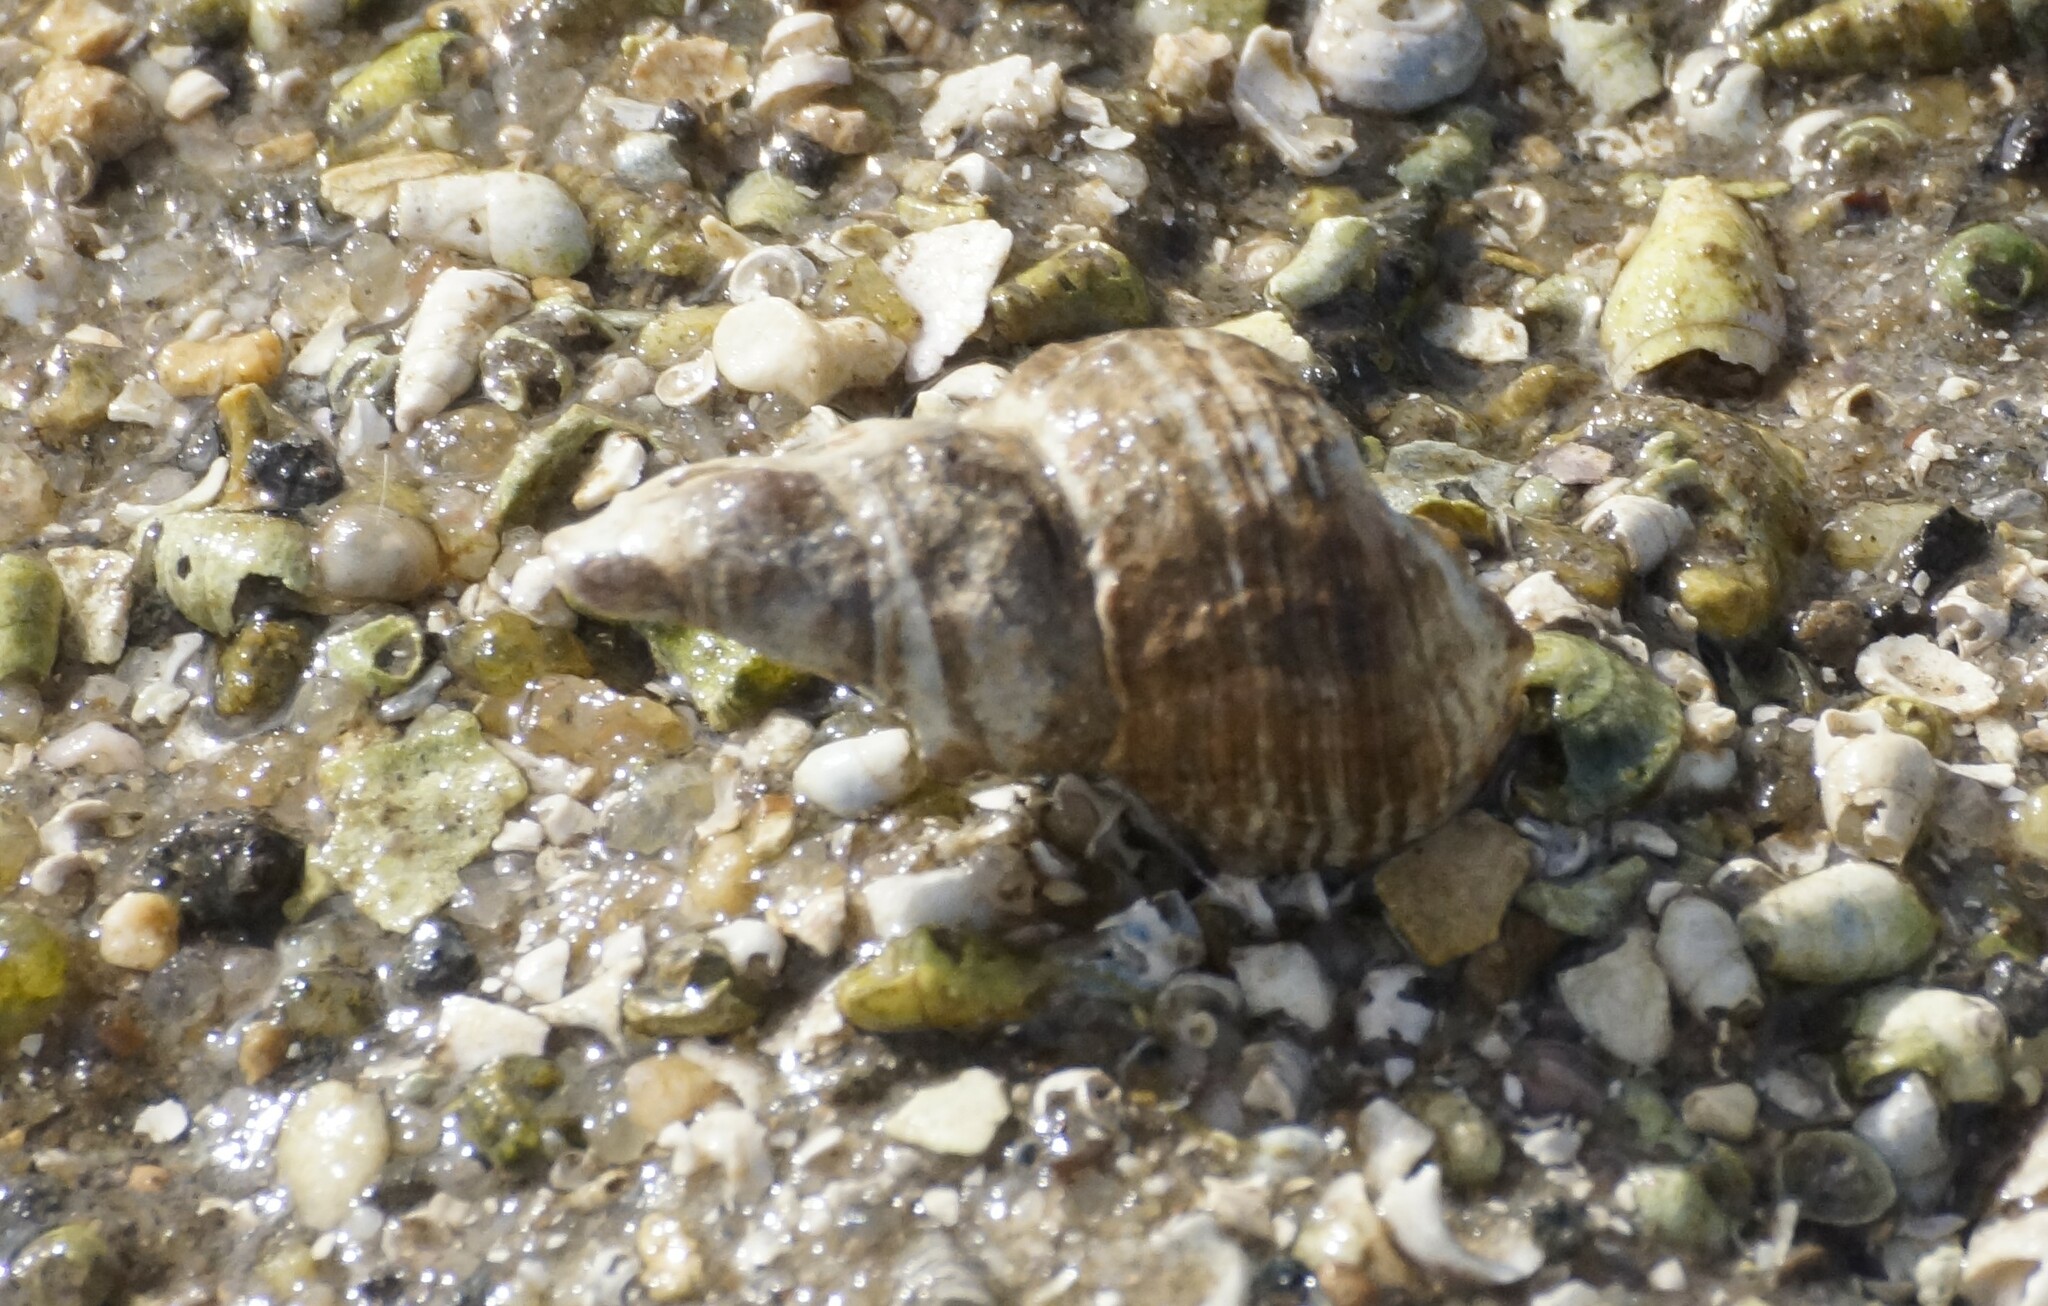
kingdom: Animalia
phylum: Mollusca
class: Gastropoda
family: Batillariidae
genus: Batillaria
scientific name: Batillaria australis
